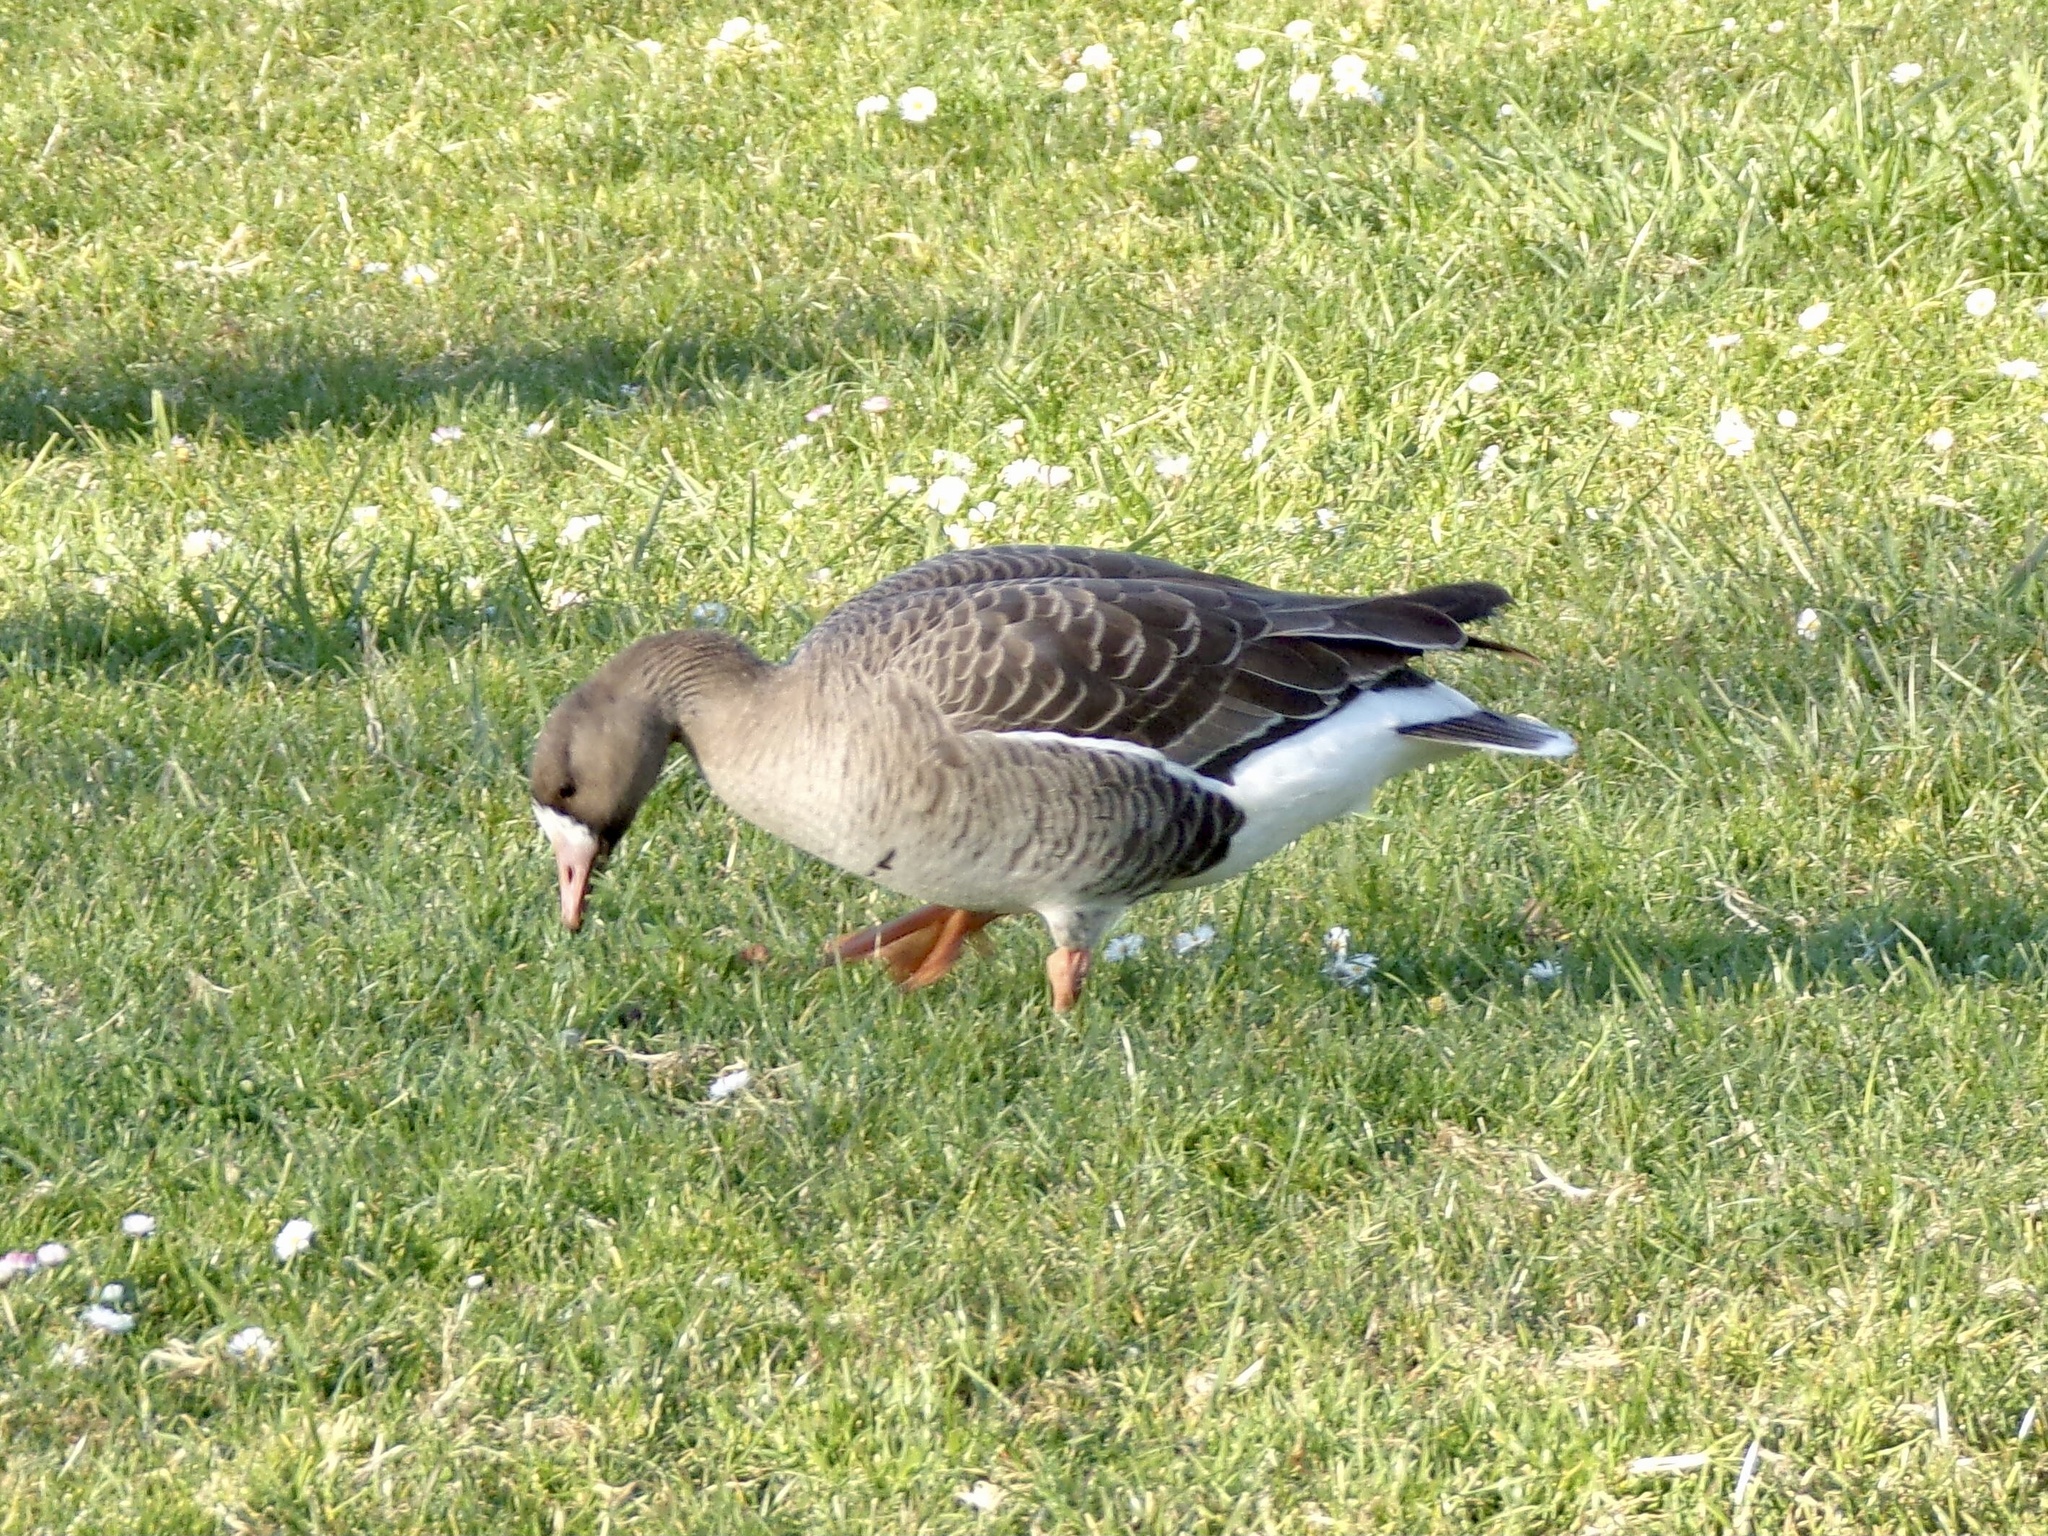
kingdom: Animalia
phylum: Chordata
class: Aves
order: Anseriformes
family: Anatidae
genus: Anser
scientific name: Anser albifrons
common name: Greater white-fronted goose
